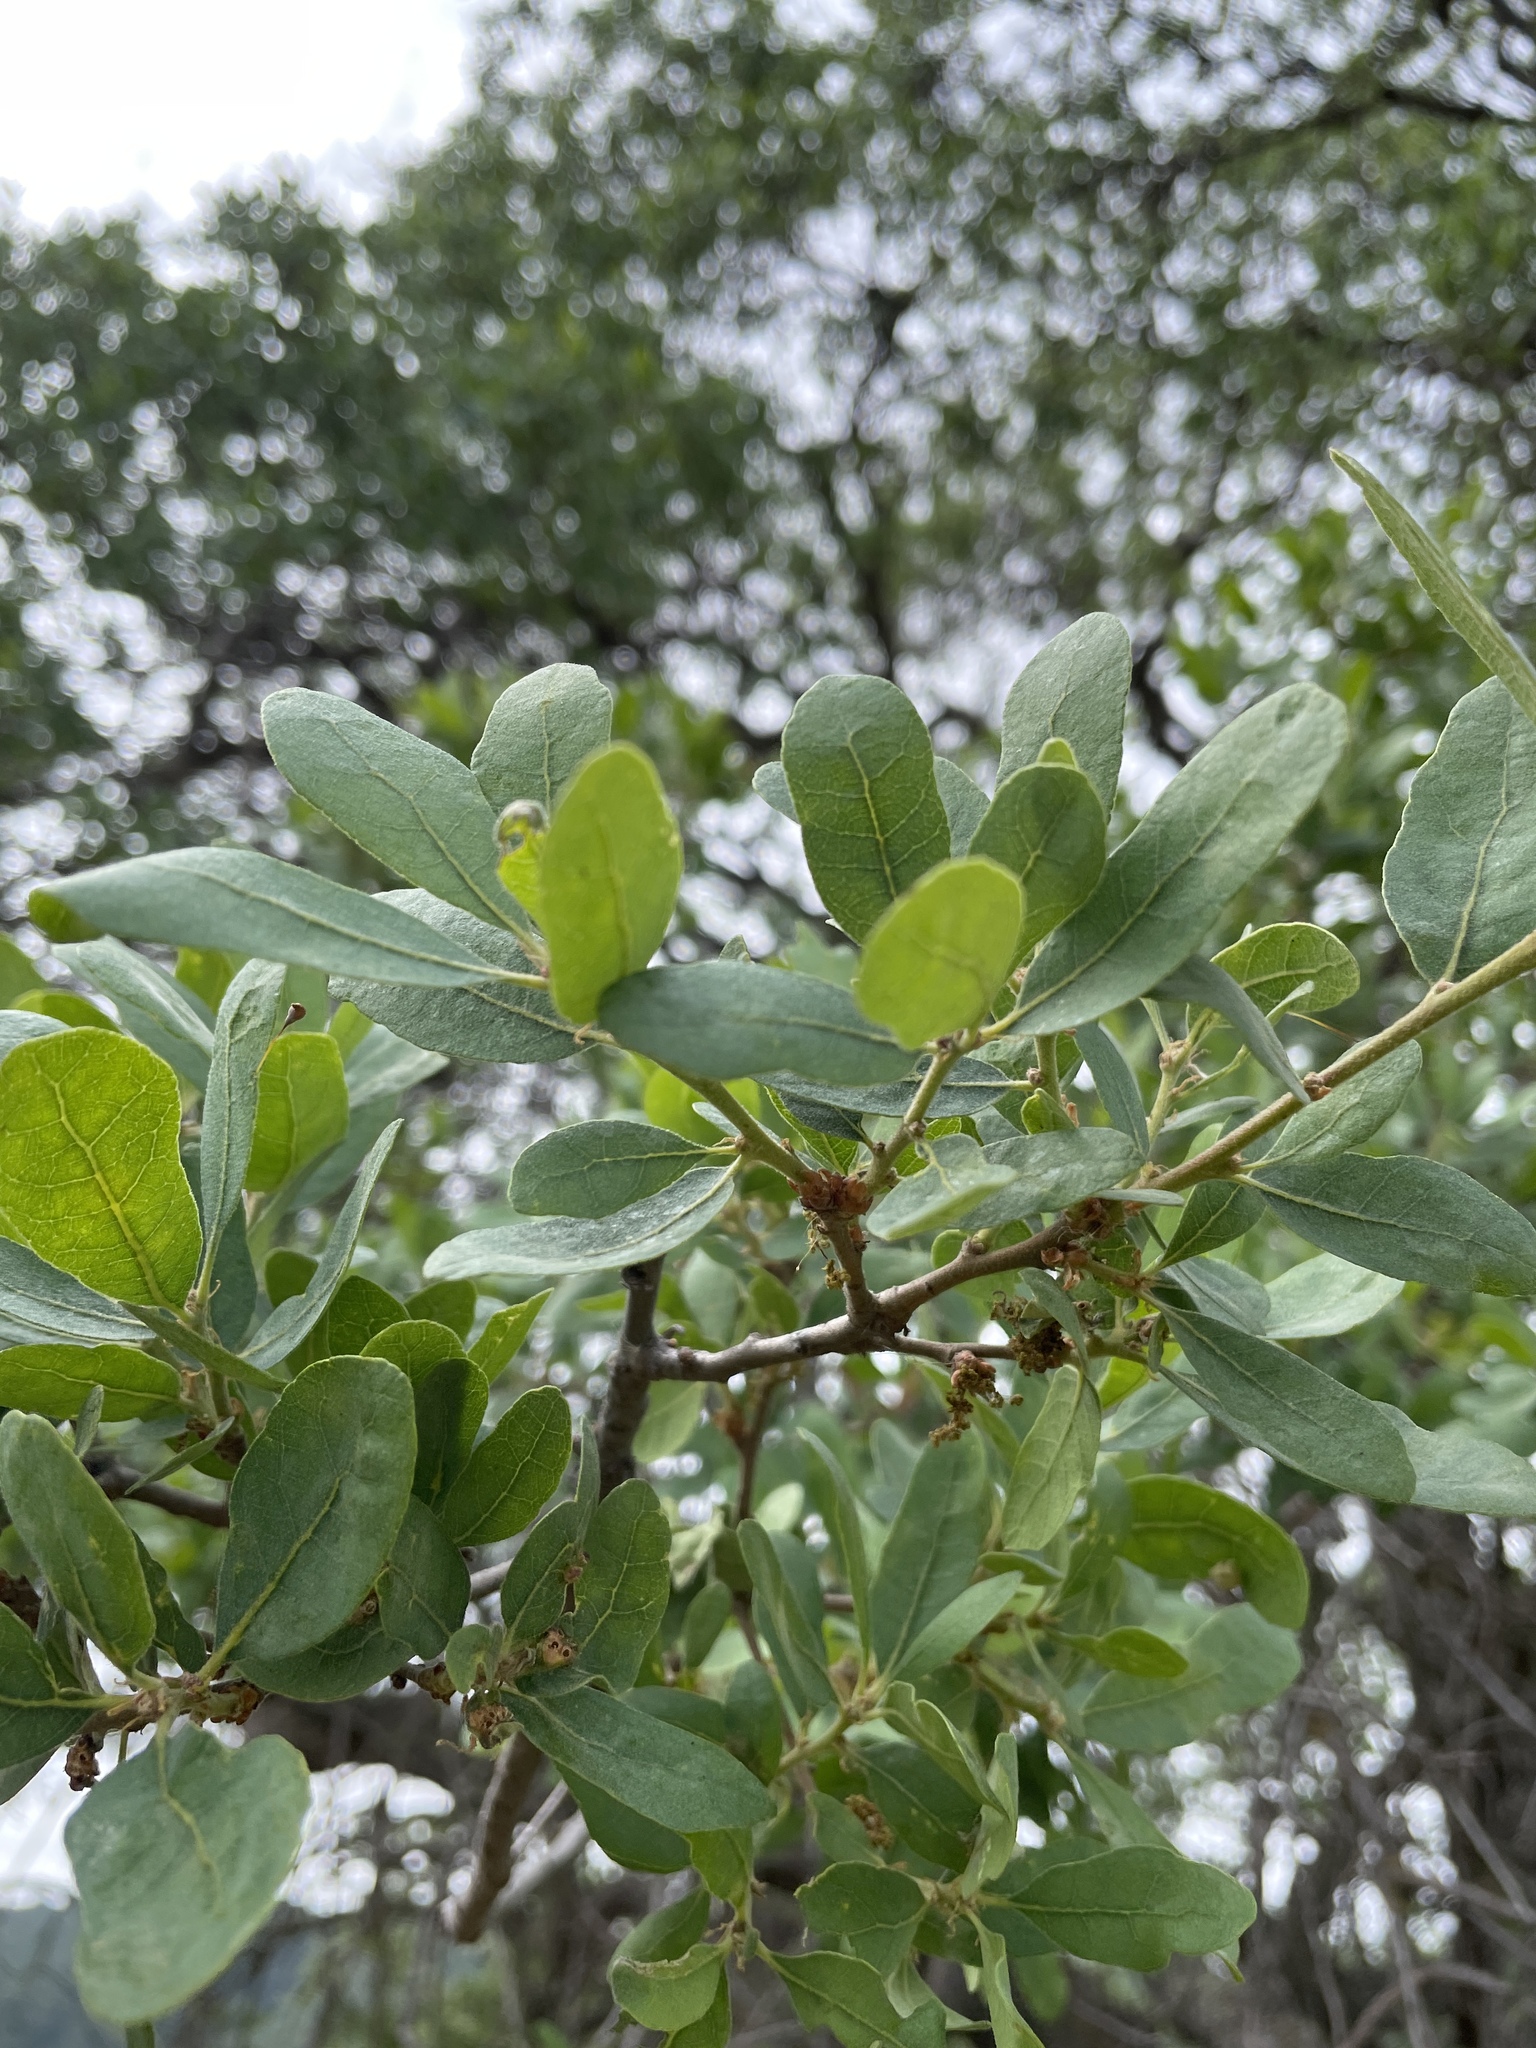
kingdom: Plantae
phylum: Tracheophyta
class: Magnoliopsida
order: Fagales
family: Fagaceae
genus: Quercus
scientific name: Quercus douglasii
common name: Blue oak
